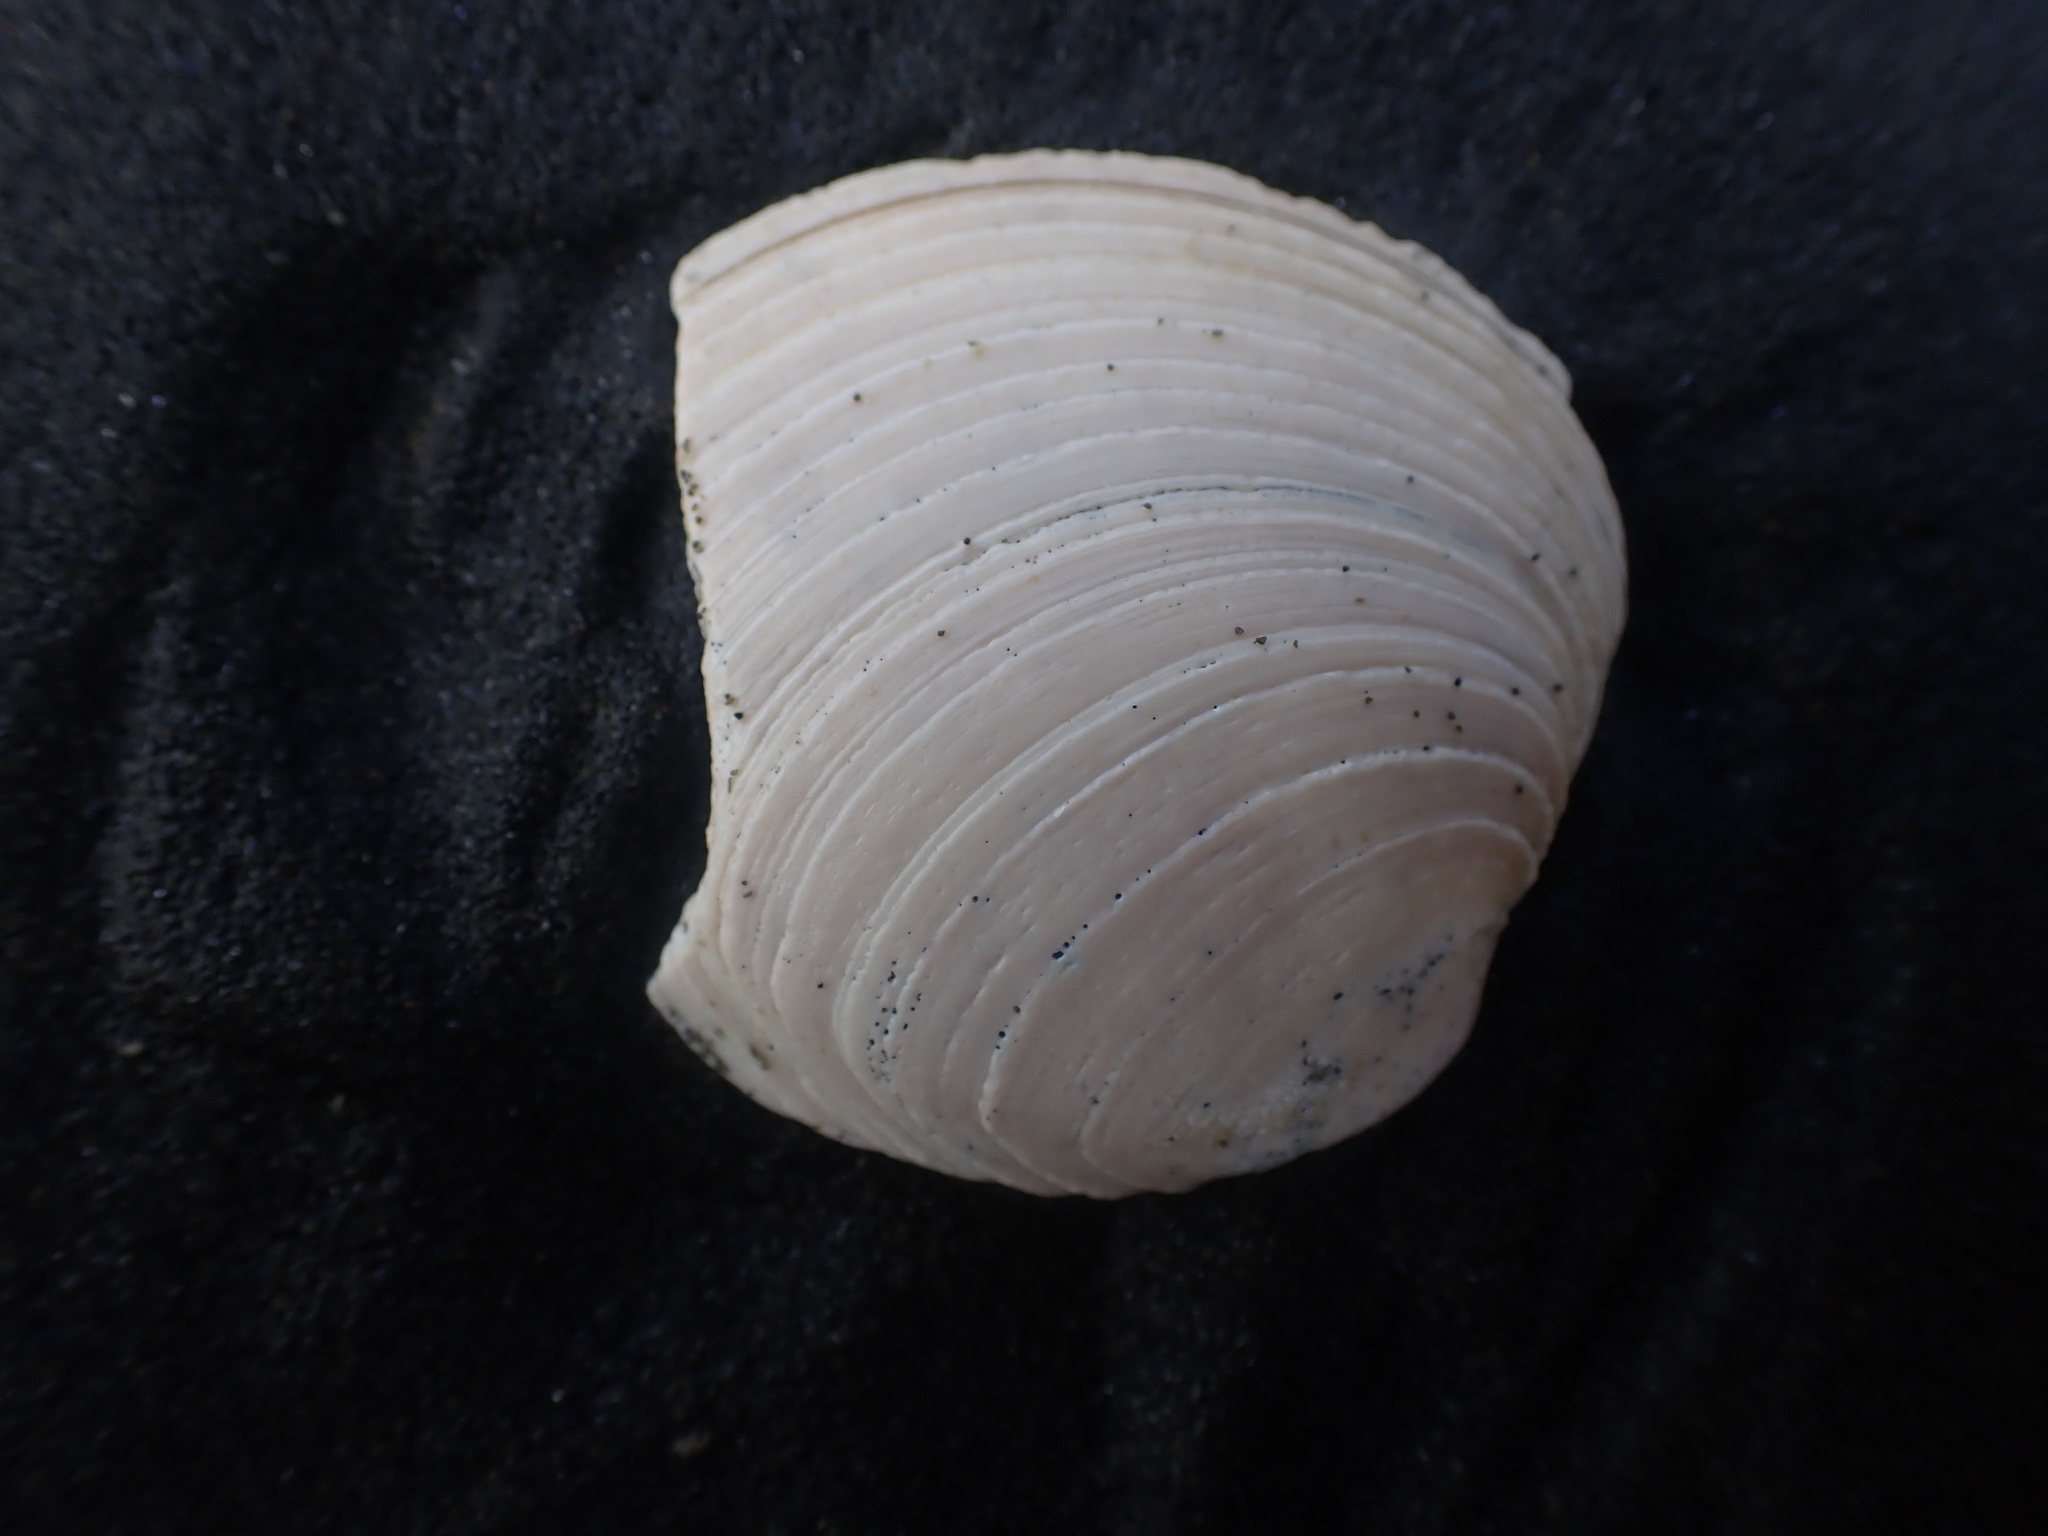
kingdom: Animalia
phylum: Mollusca
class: Bivalvia
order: Venerida
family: Veneridae
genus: Bassina
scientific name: Bassina yatei
